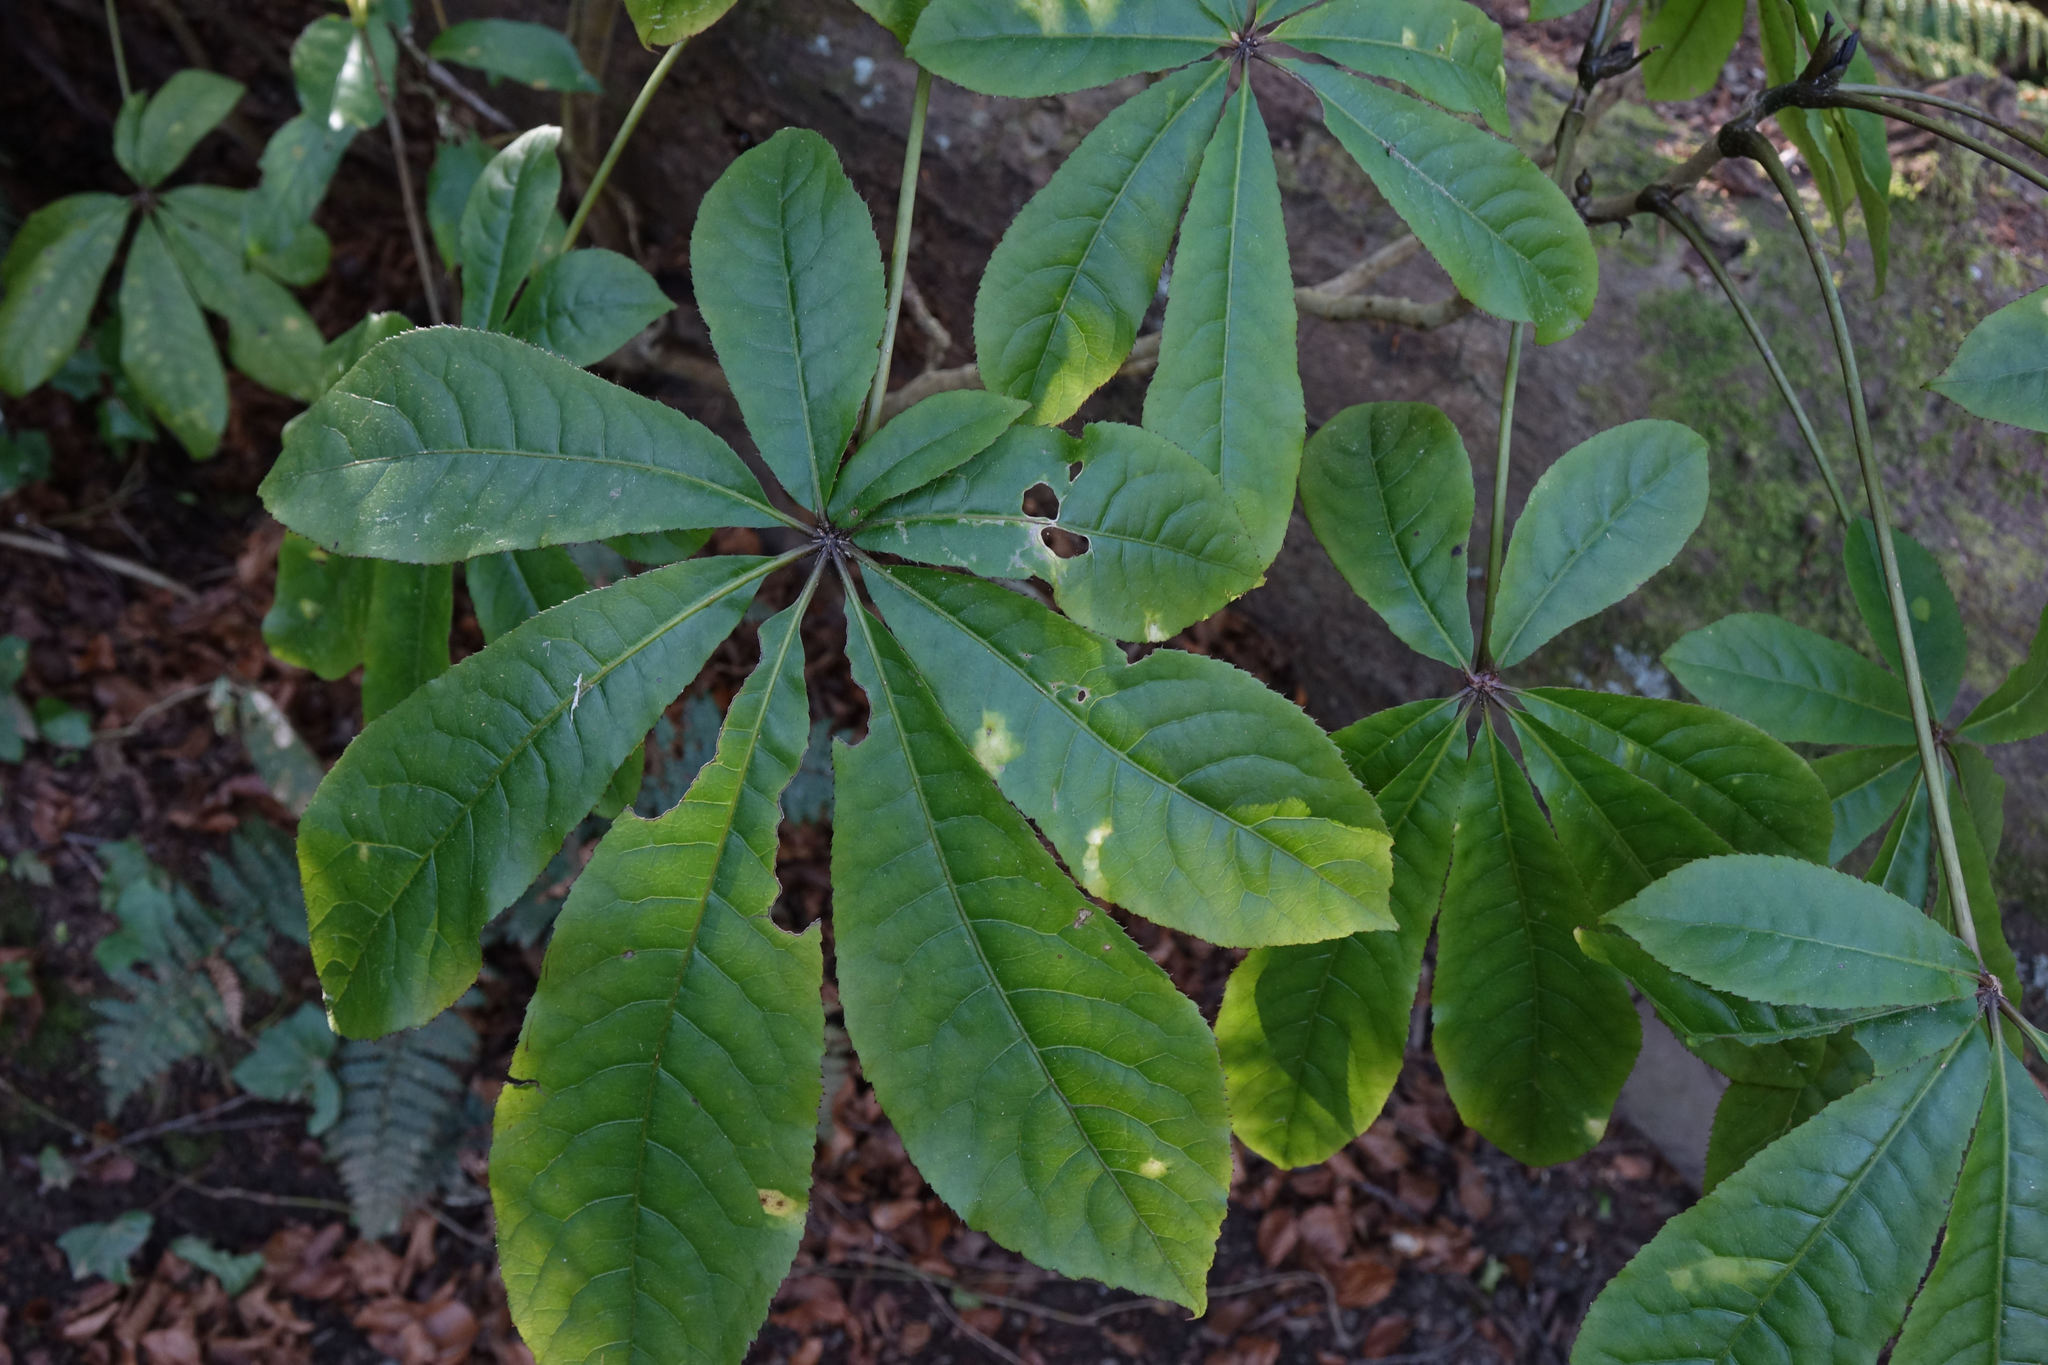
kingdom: Plantae
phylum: Tracheophyta
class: Magnoliopsida
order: Apiales
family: Araliaceae
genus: Schefflera
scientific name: Schefflera digitata
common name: Pate
